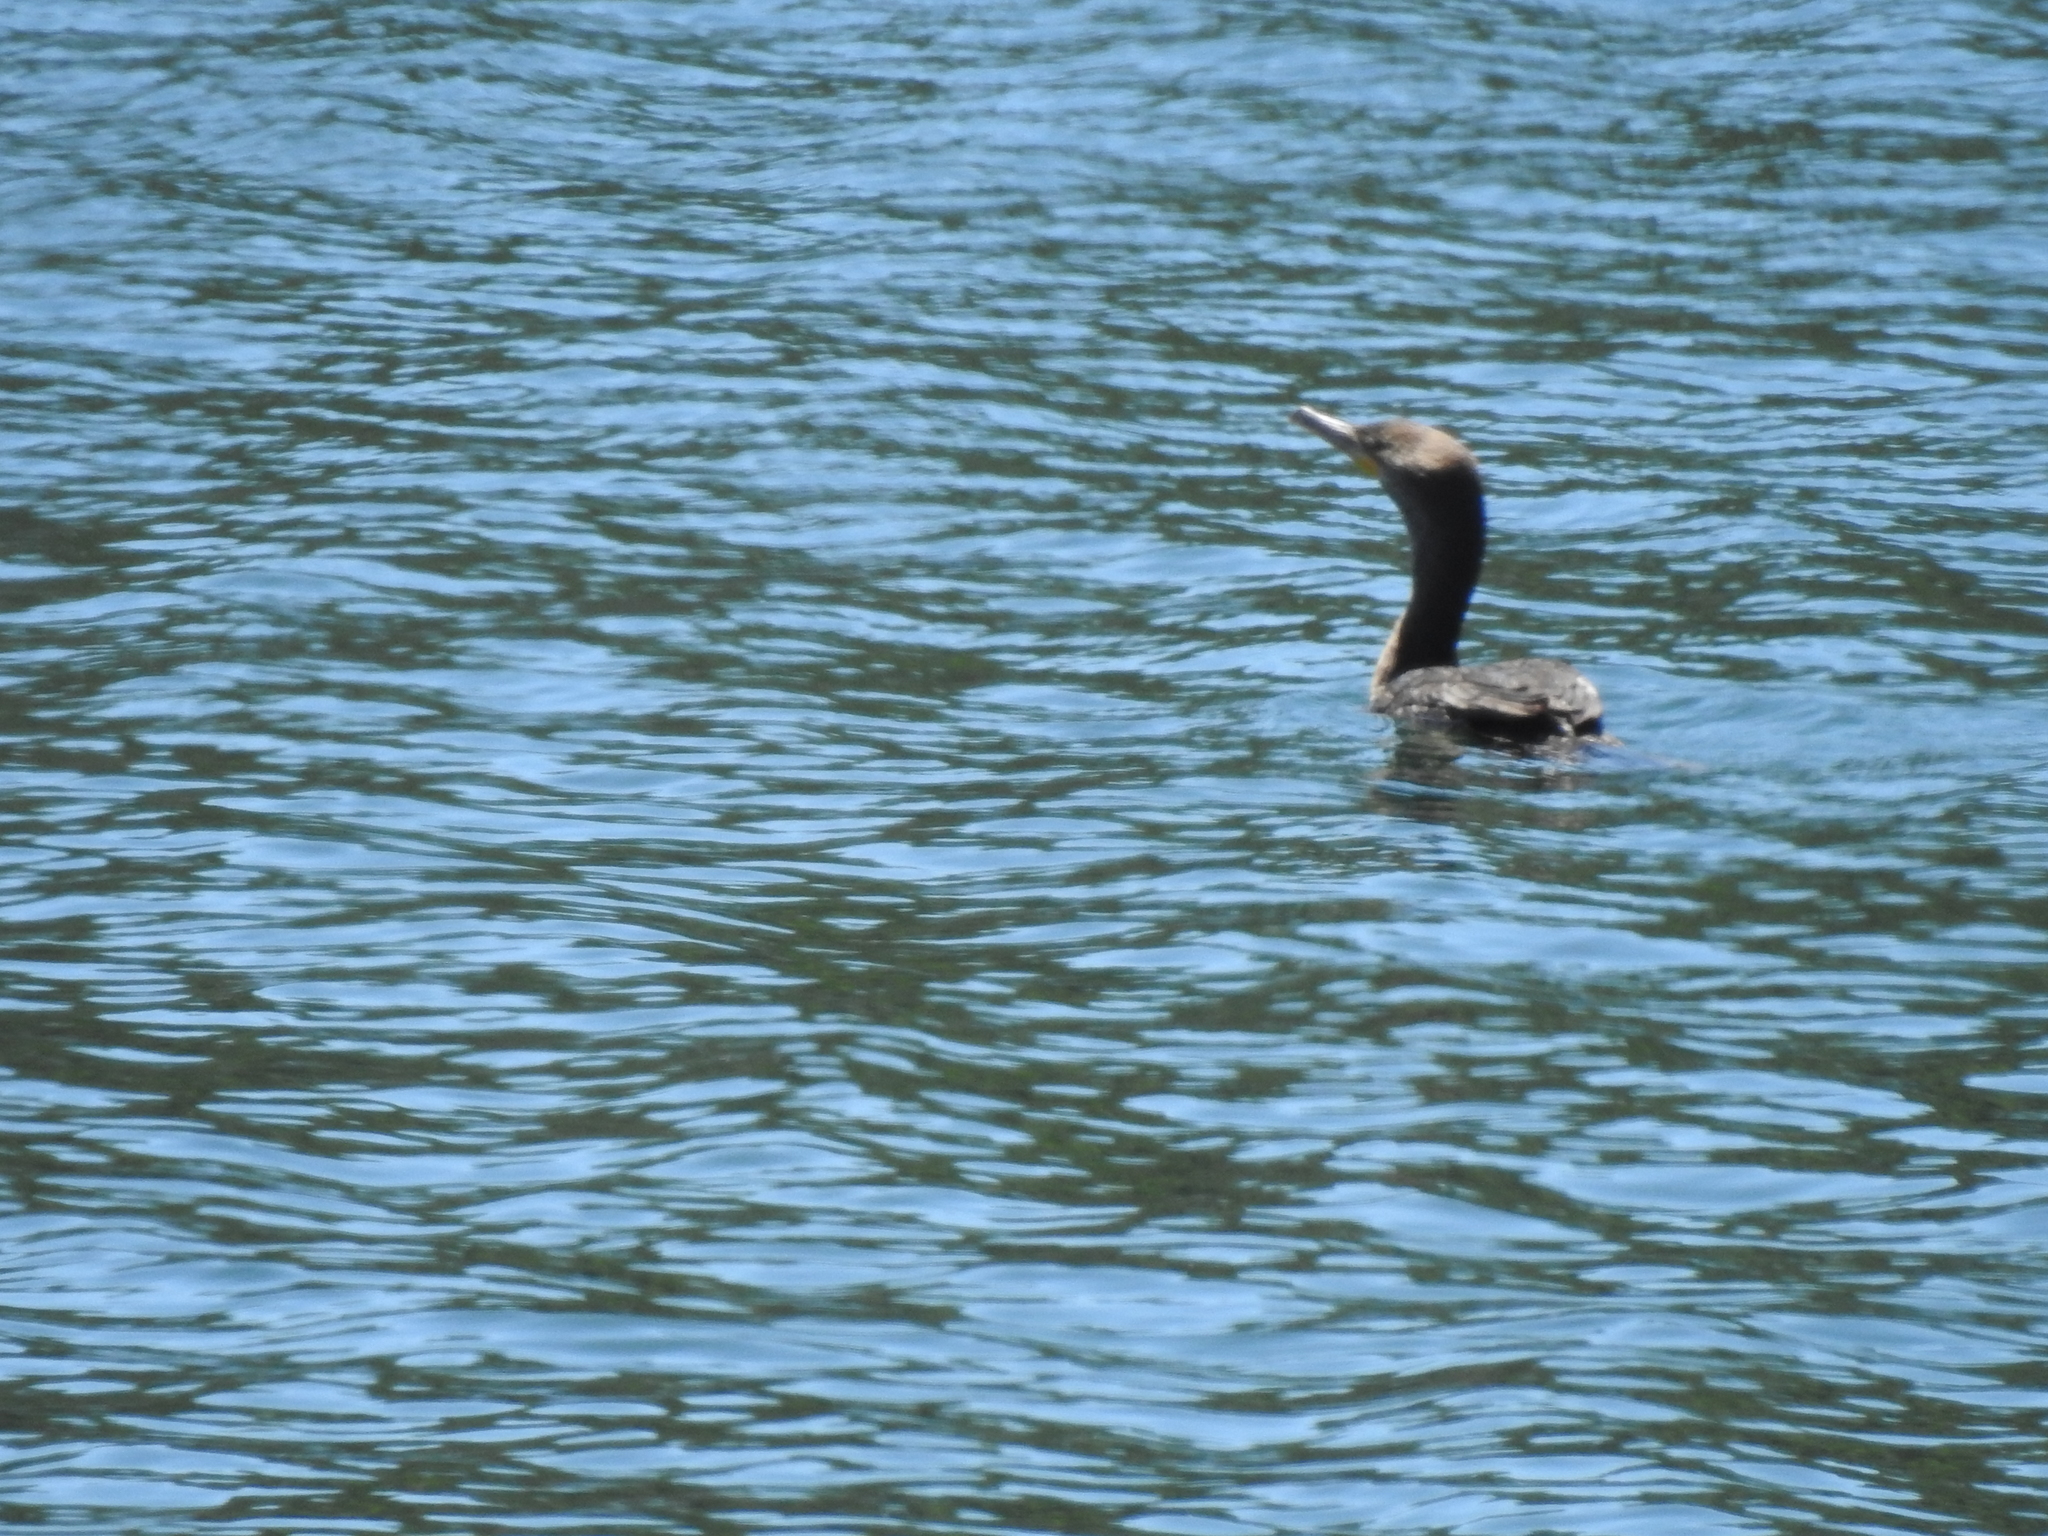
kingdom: Animalia
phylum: Chordata
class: Aves
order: Suliformes
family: Phalacrocoracidae
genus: Phalacrocorax
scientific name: Phalacrocorax auritus
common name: Double-crested cormorant
